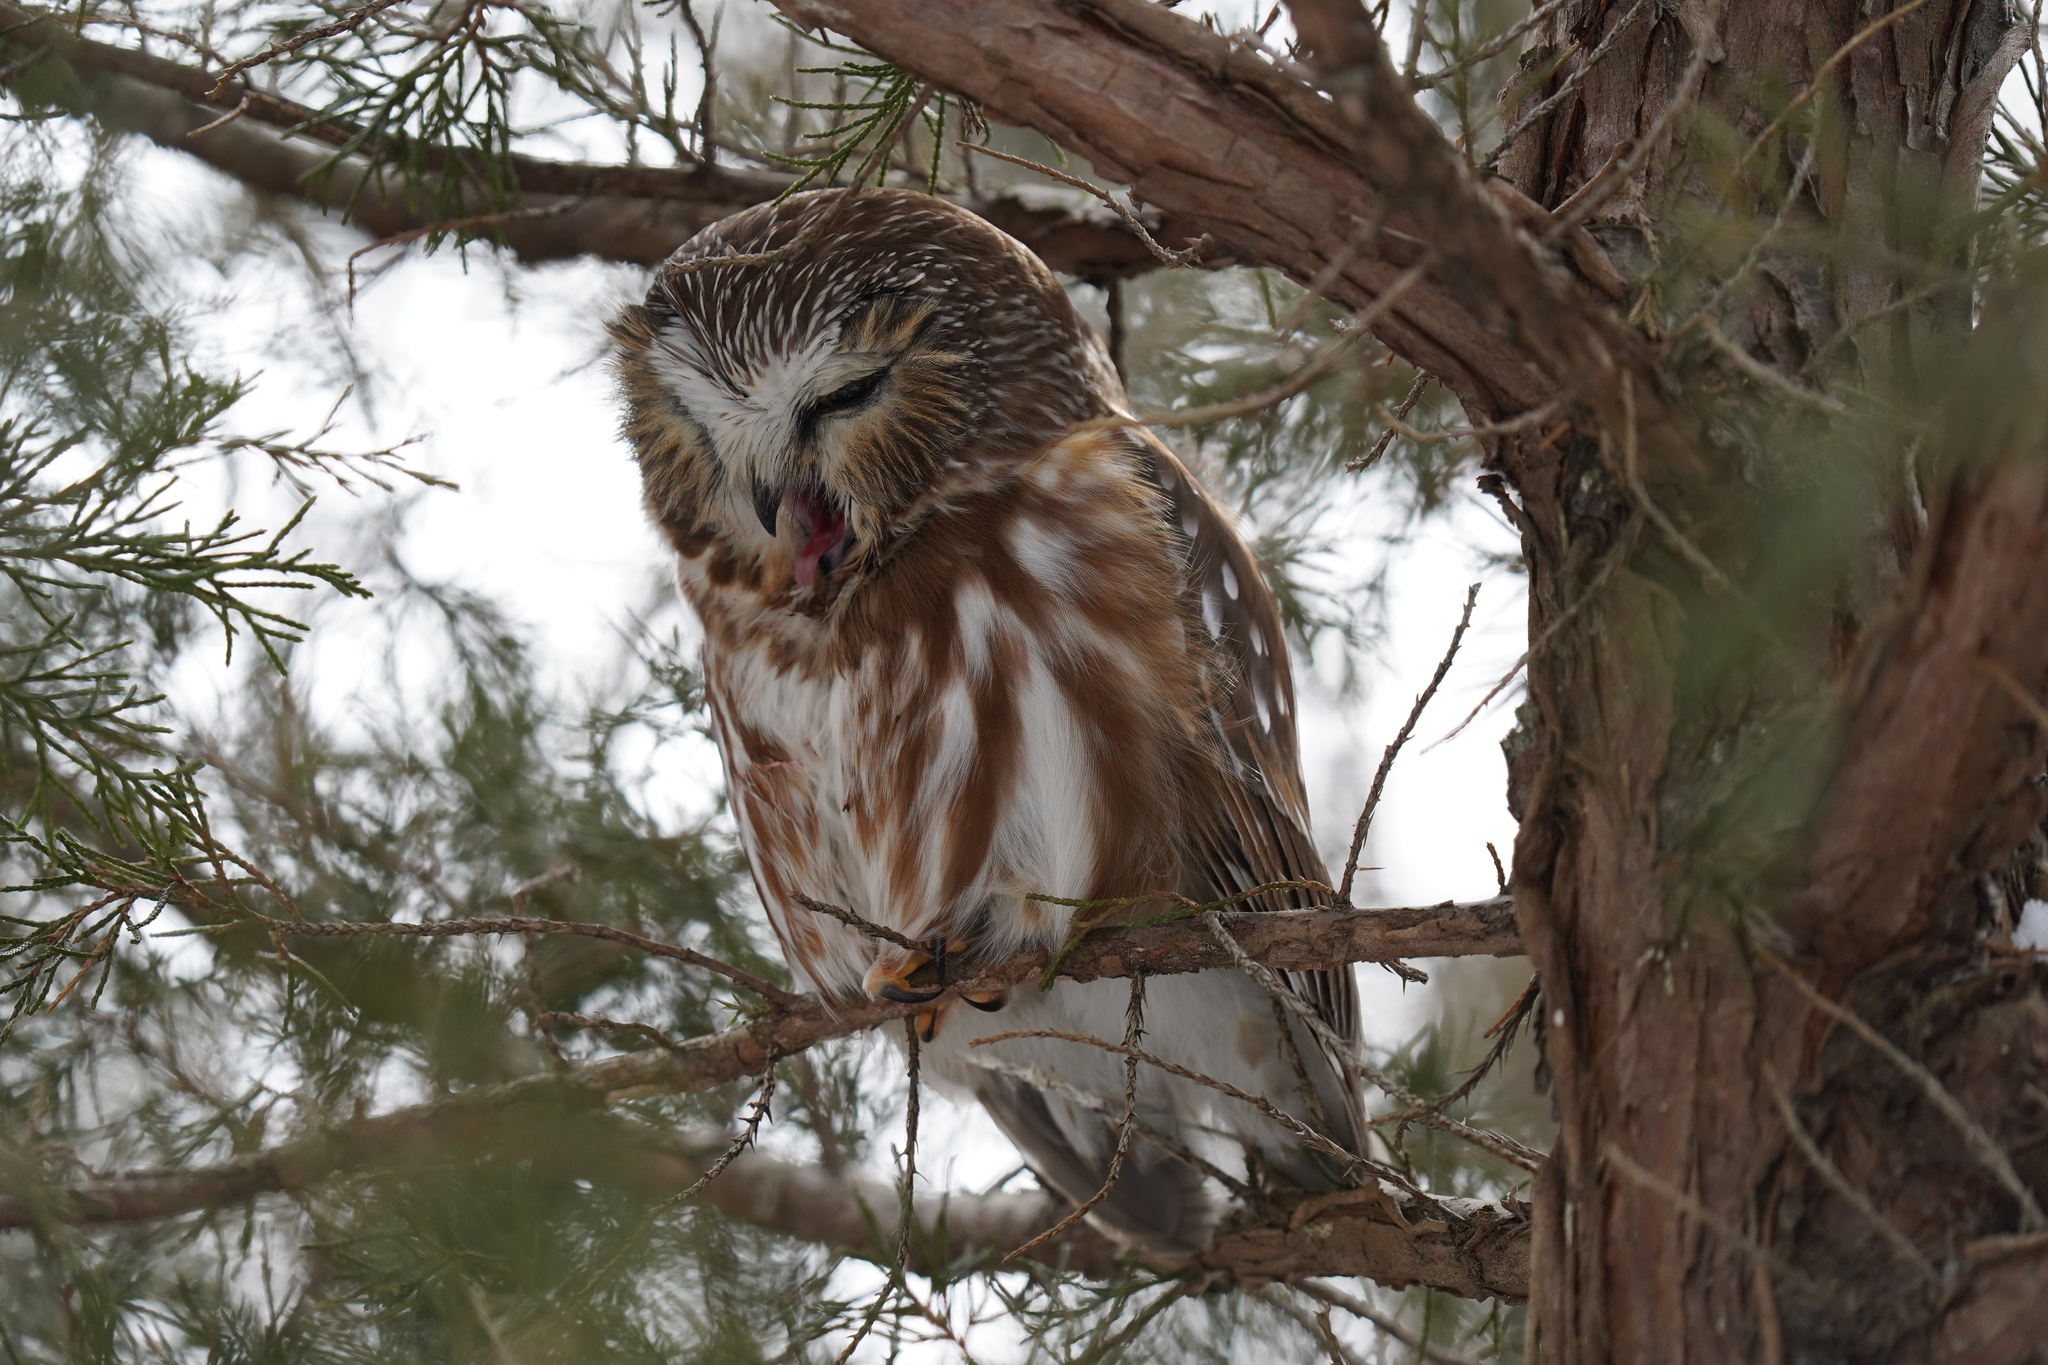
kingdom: Animalia
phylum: Chordata
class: Aves
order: Strigiformes
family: Strigidae
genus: Aegolius
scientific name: Aegolius acadicus
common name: Northern saw-whet owl
